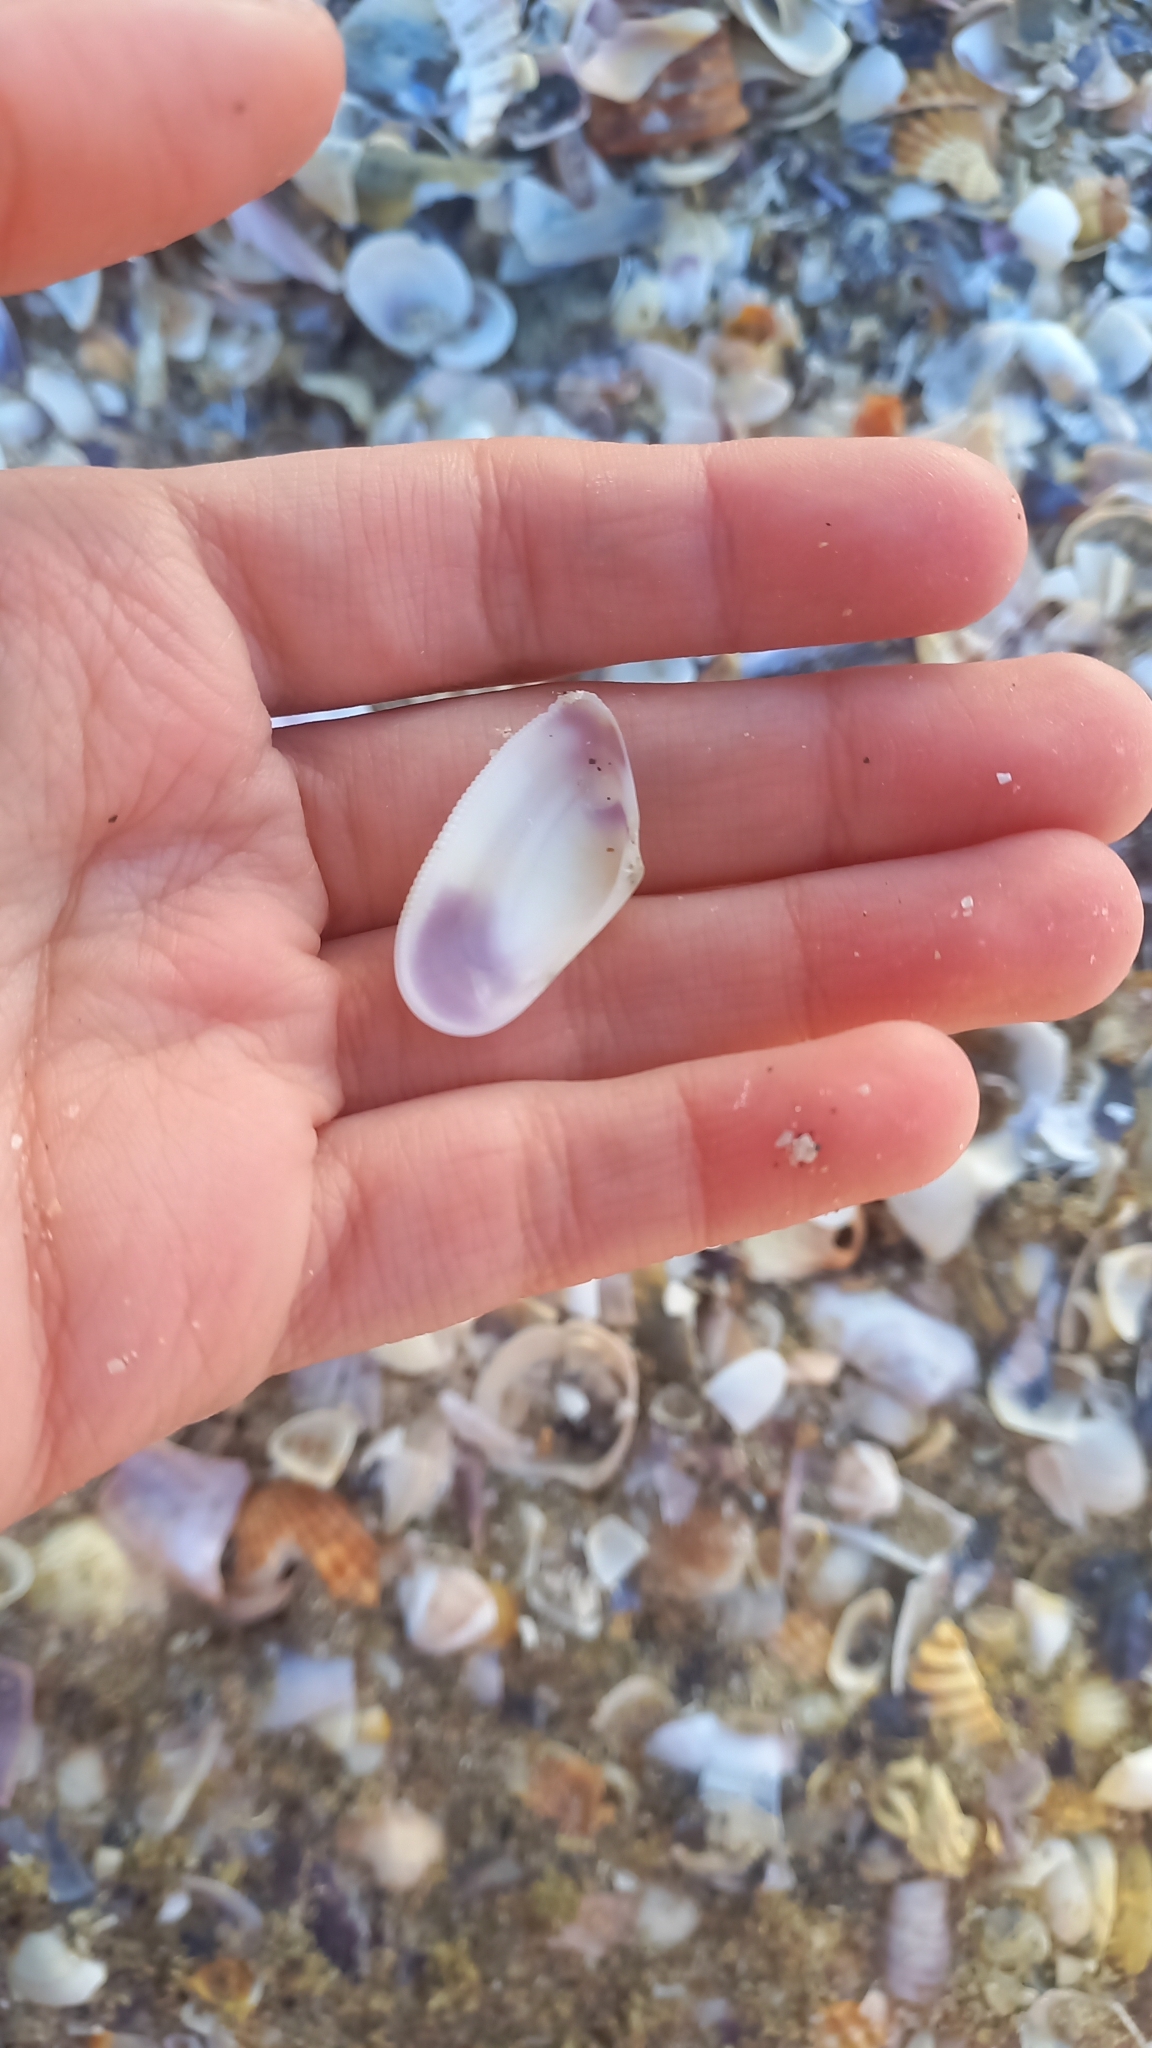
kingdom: Animalia
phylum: Mollusca
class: Bivalvia
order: Cardiida
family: Donacidae
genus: Donax
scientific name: Donax trunculus
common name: Truncate donax
